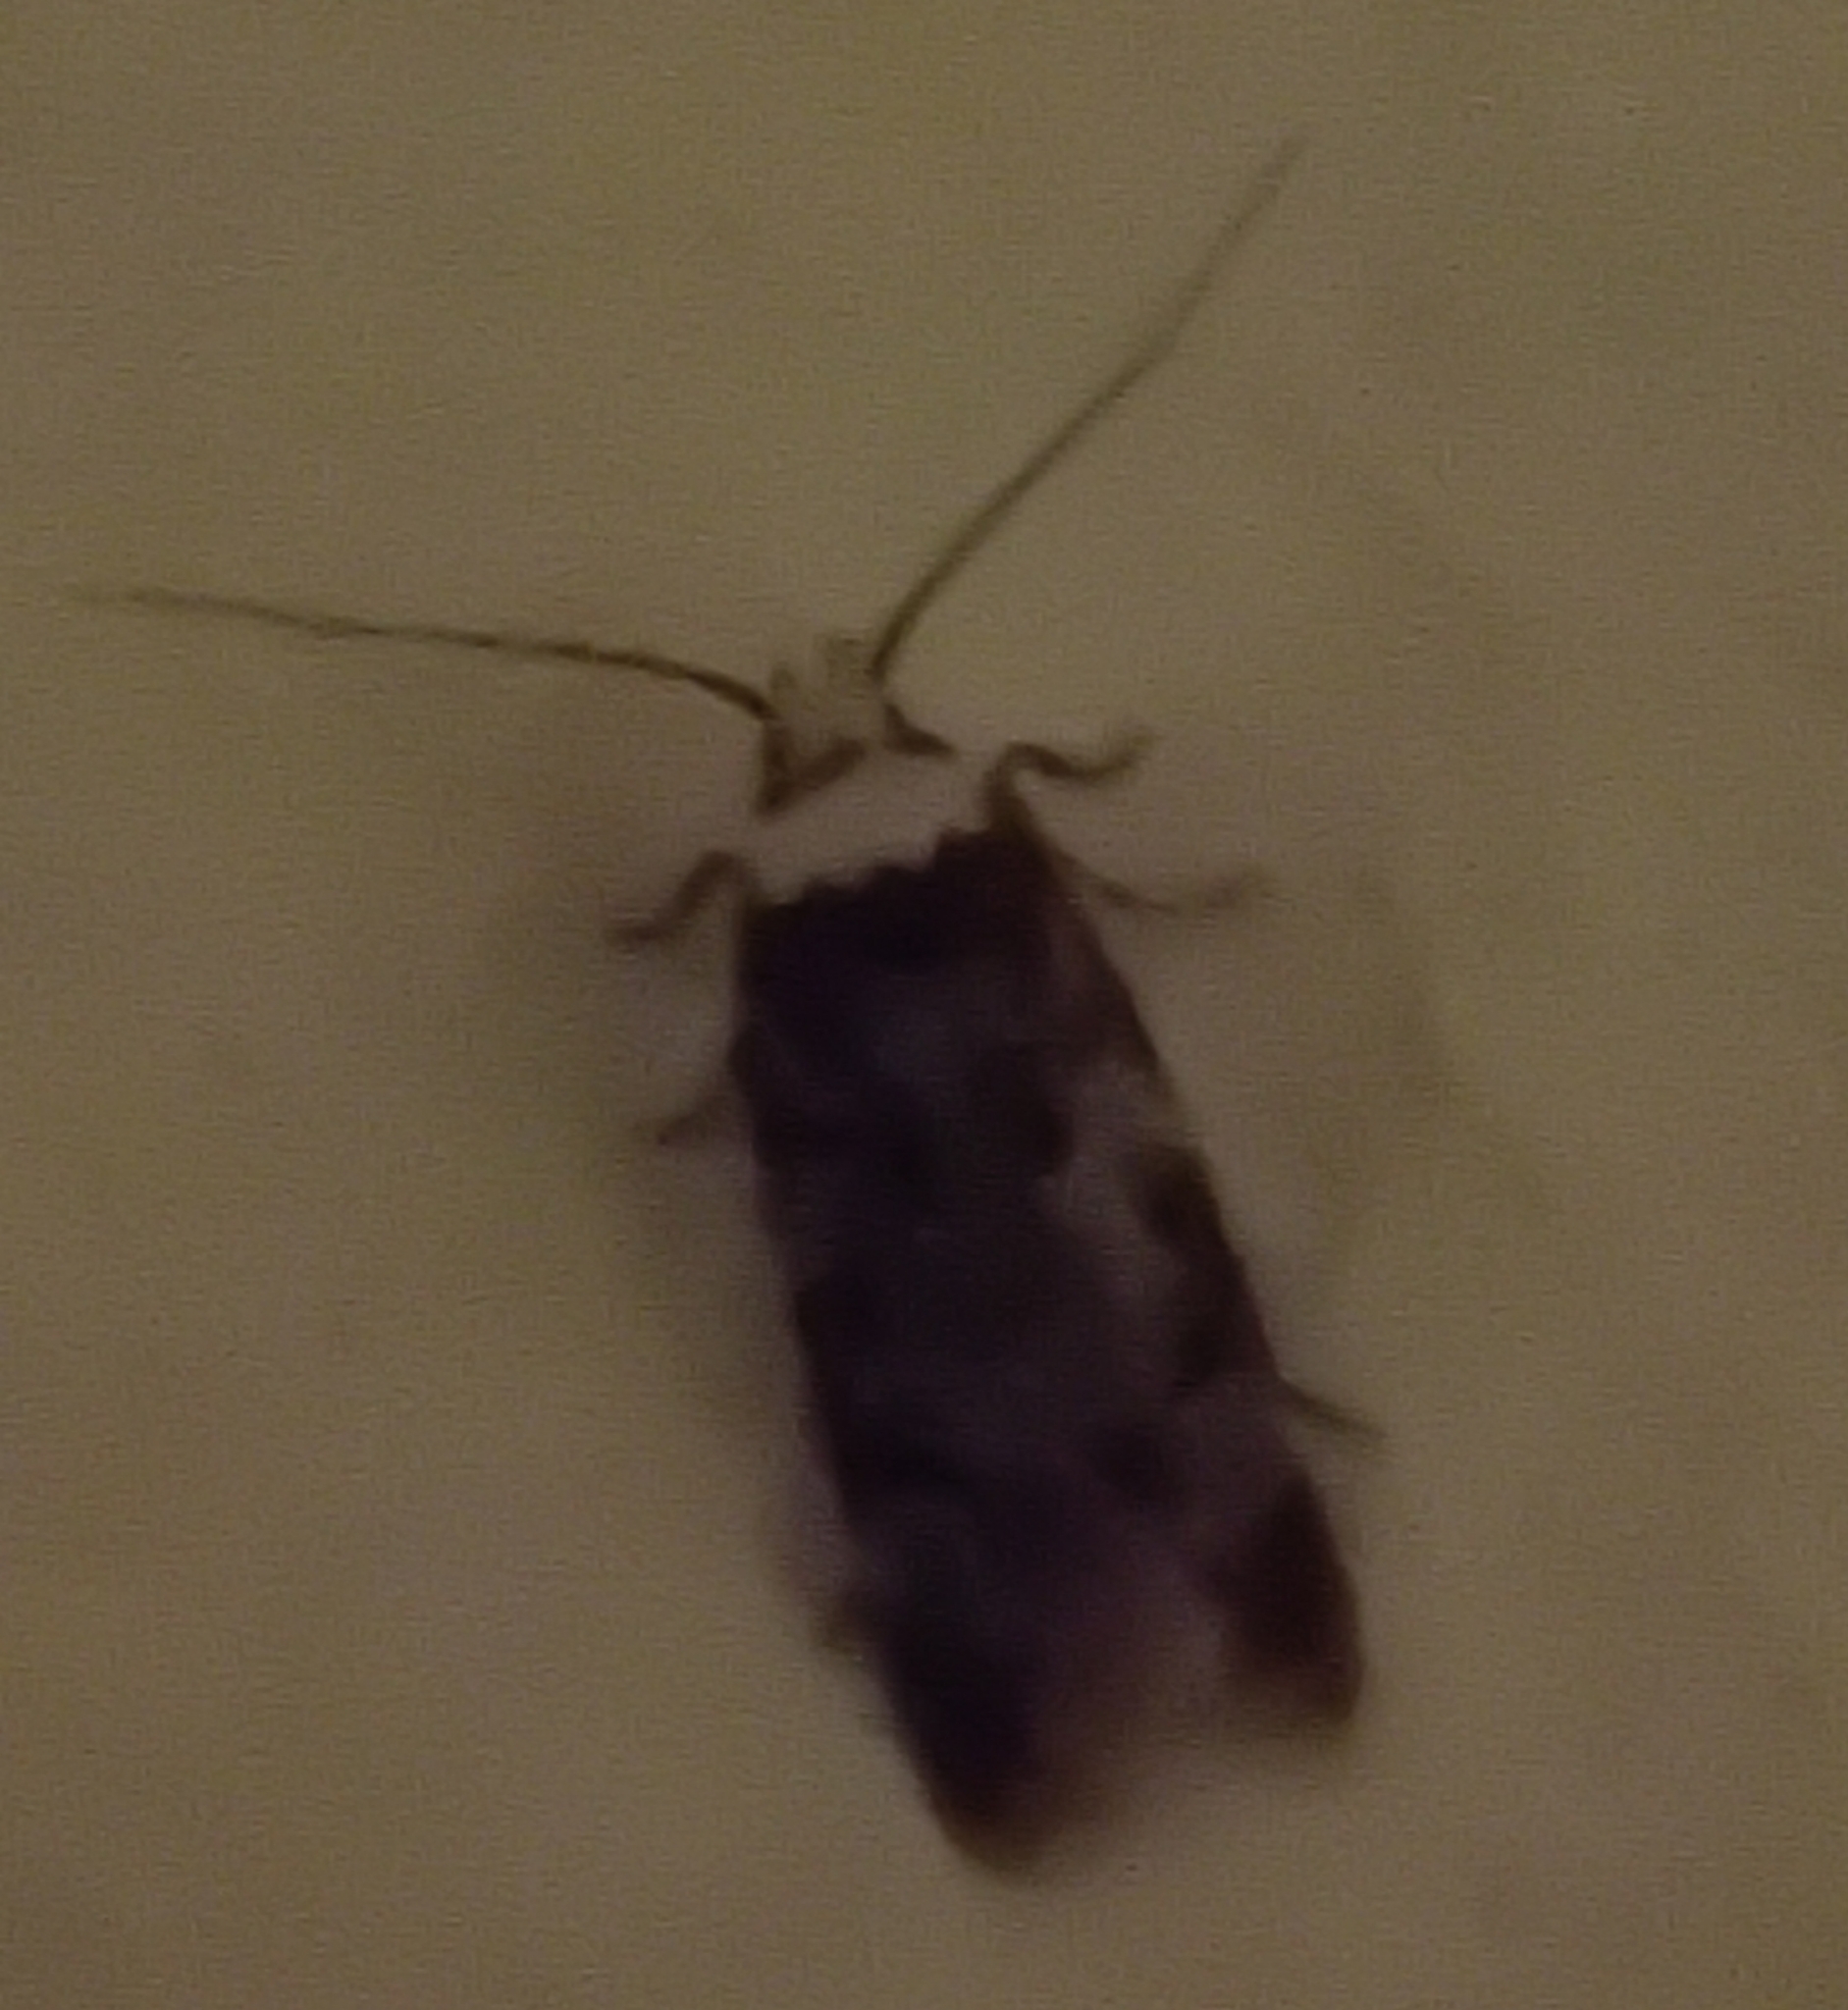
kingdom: Animalia
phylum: Arthropoda
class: Insecta
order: Lepidoptera
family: Oecophoridae
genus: Endrosis
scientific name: Endrosis sarcitrella
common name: White-shouldered house moth
